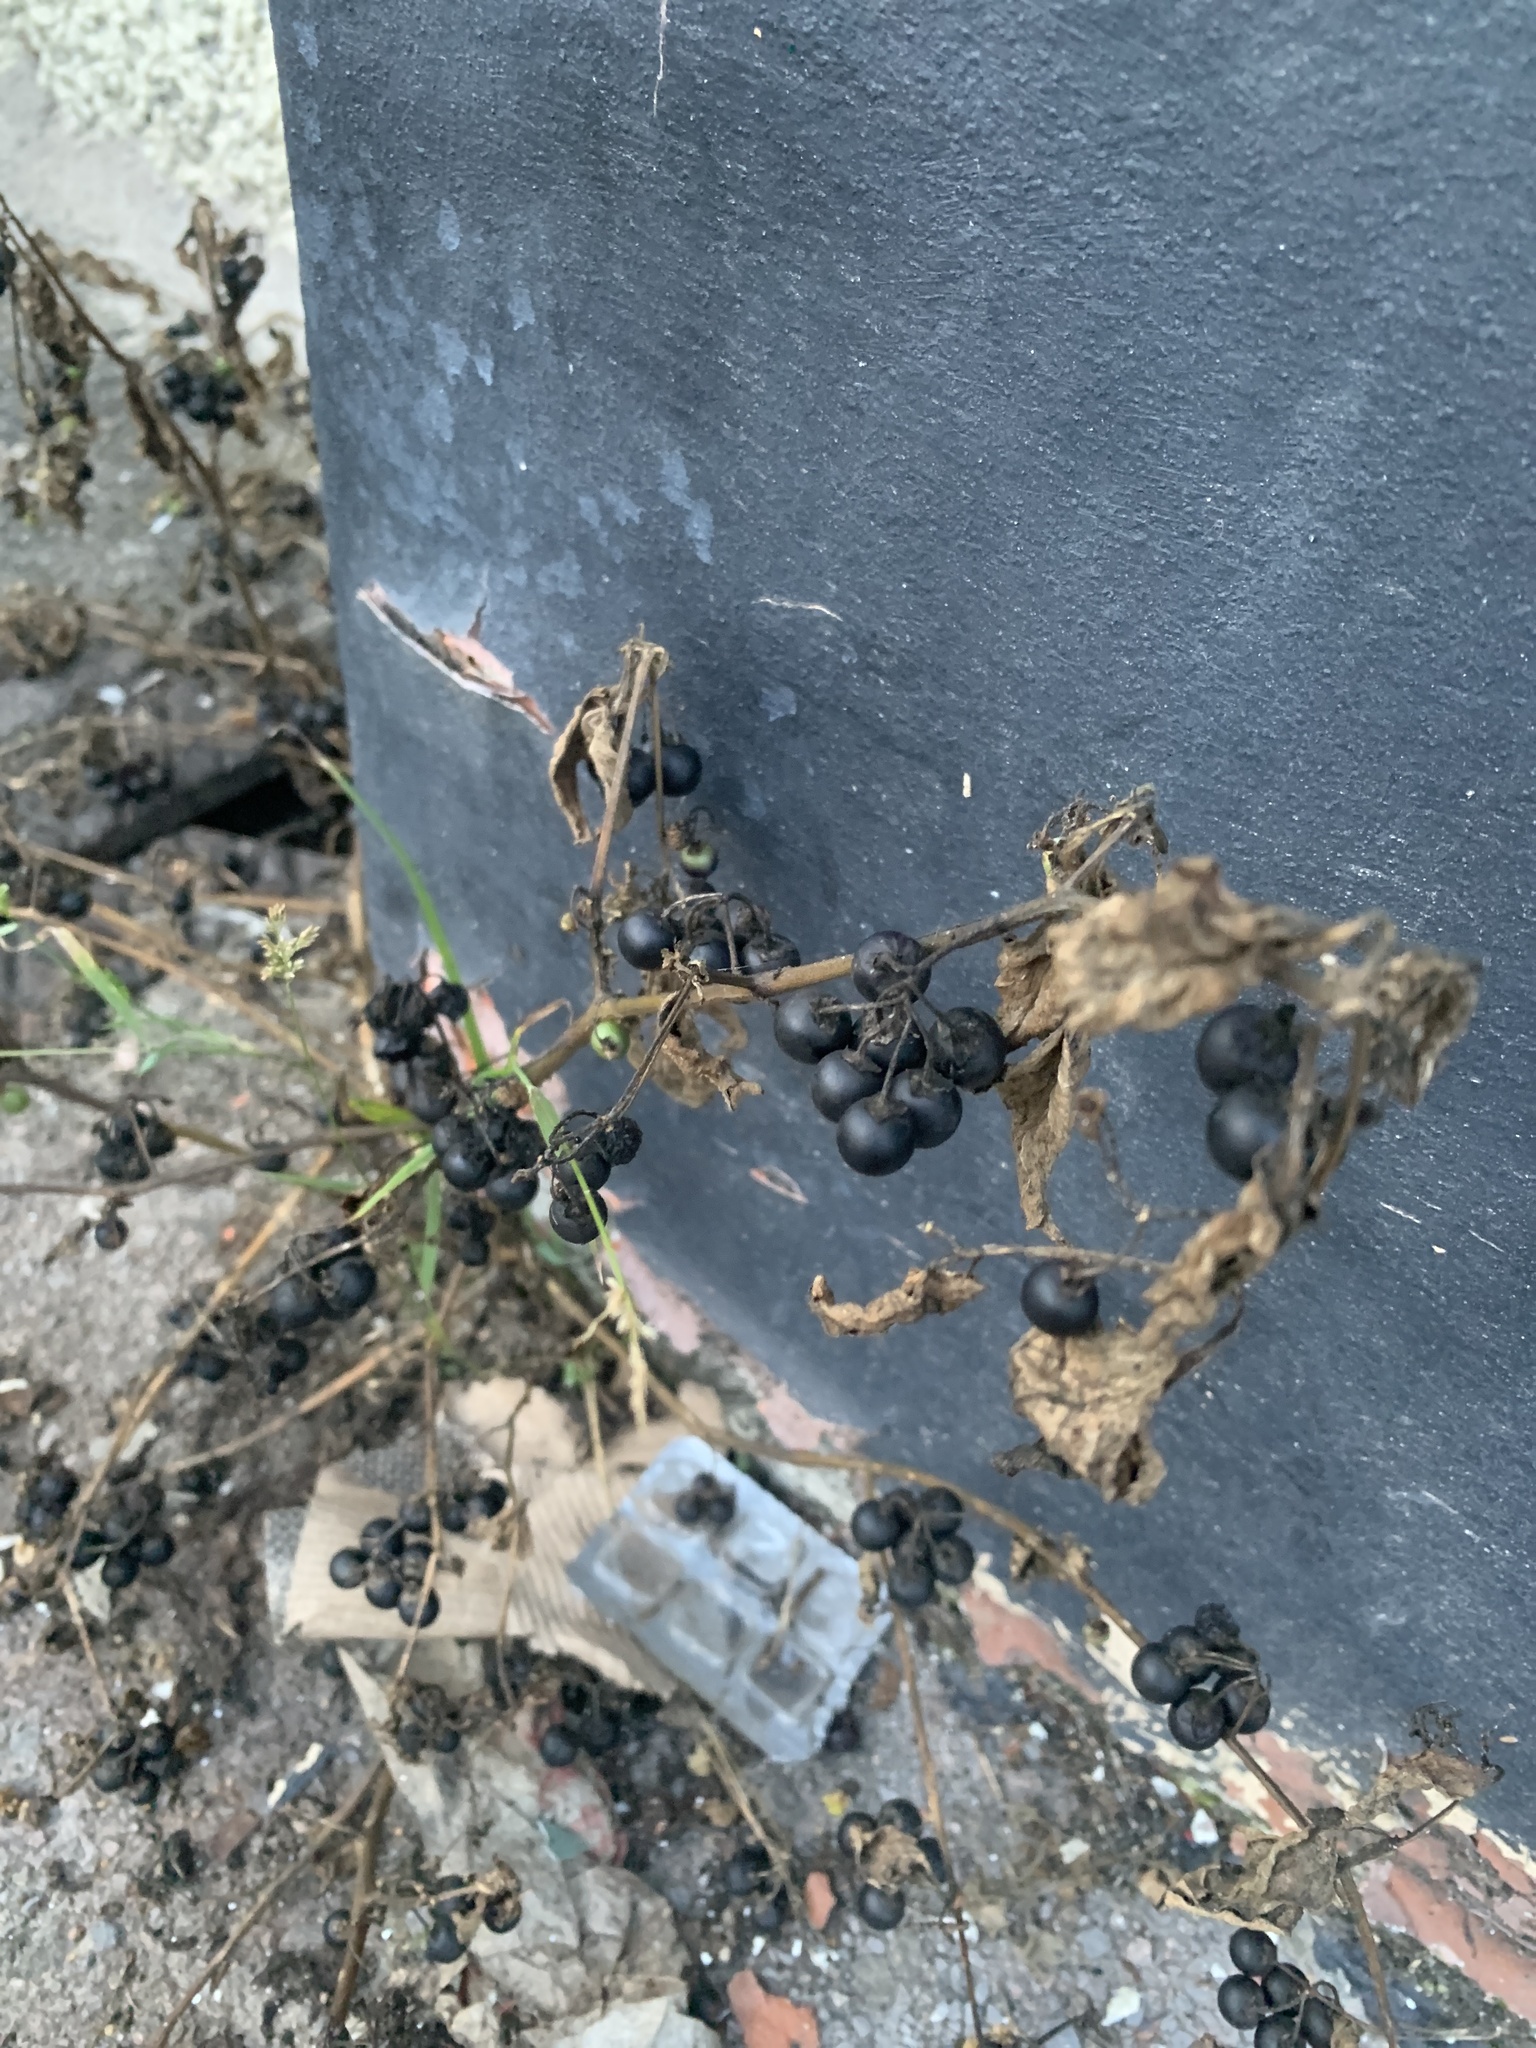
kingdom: Plantae
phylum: Tracheophyta
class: Magnoliopsida
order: Solanales
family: Solanaceae
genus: Solanum
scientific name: Solanum nigrum
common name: Black nightshade
